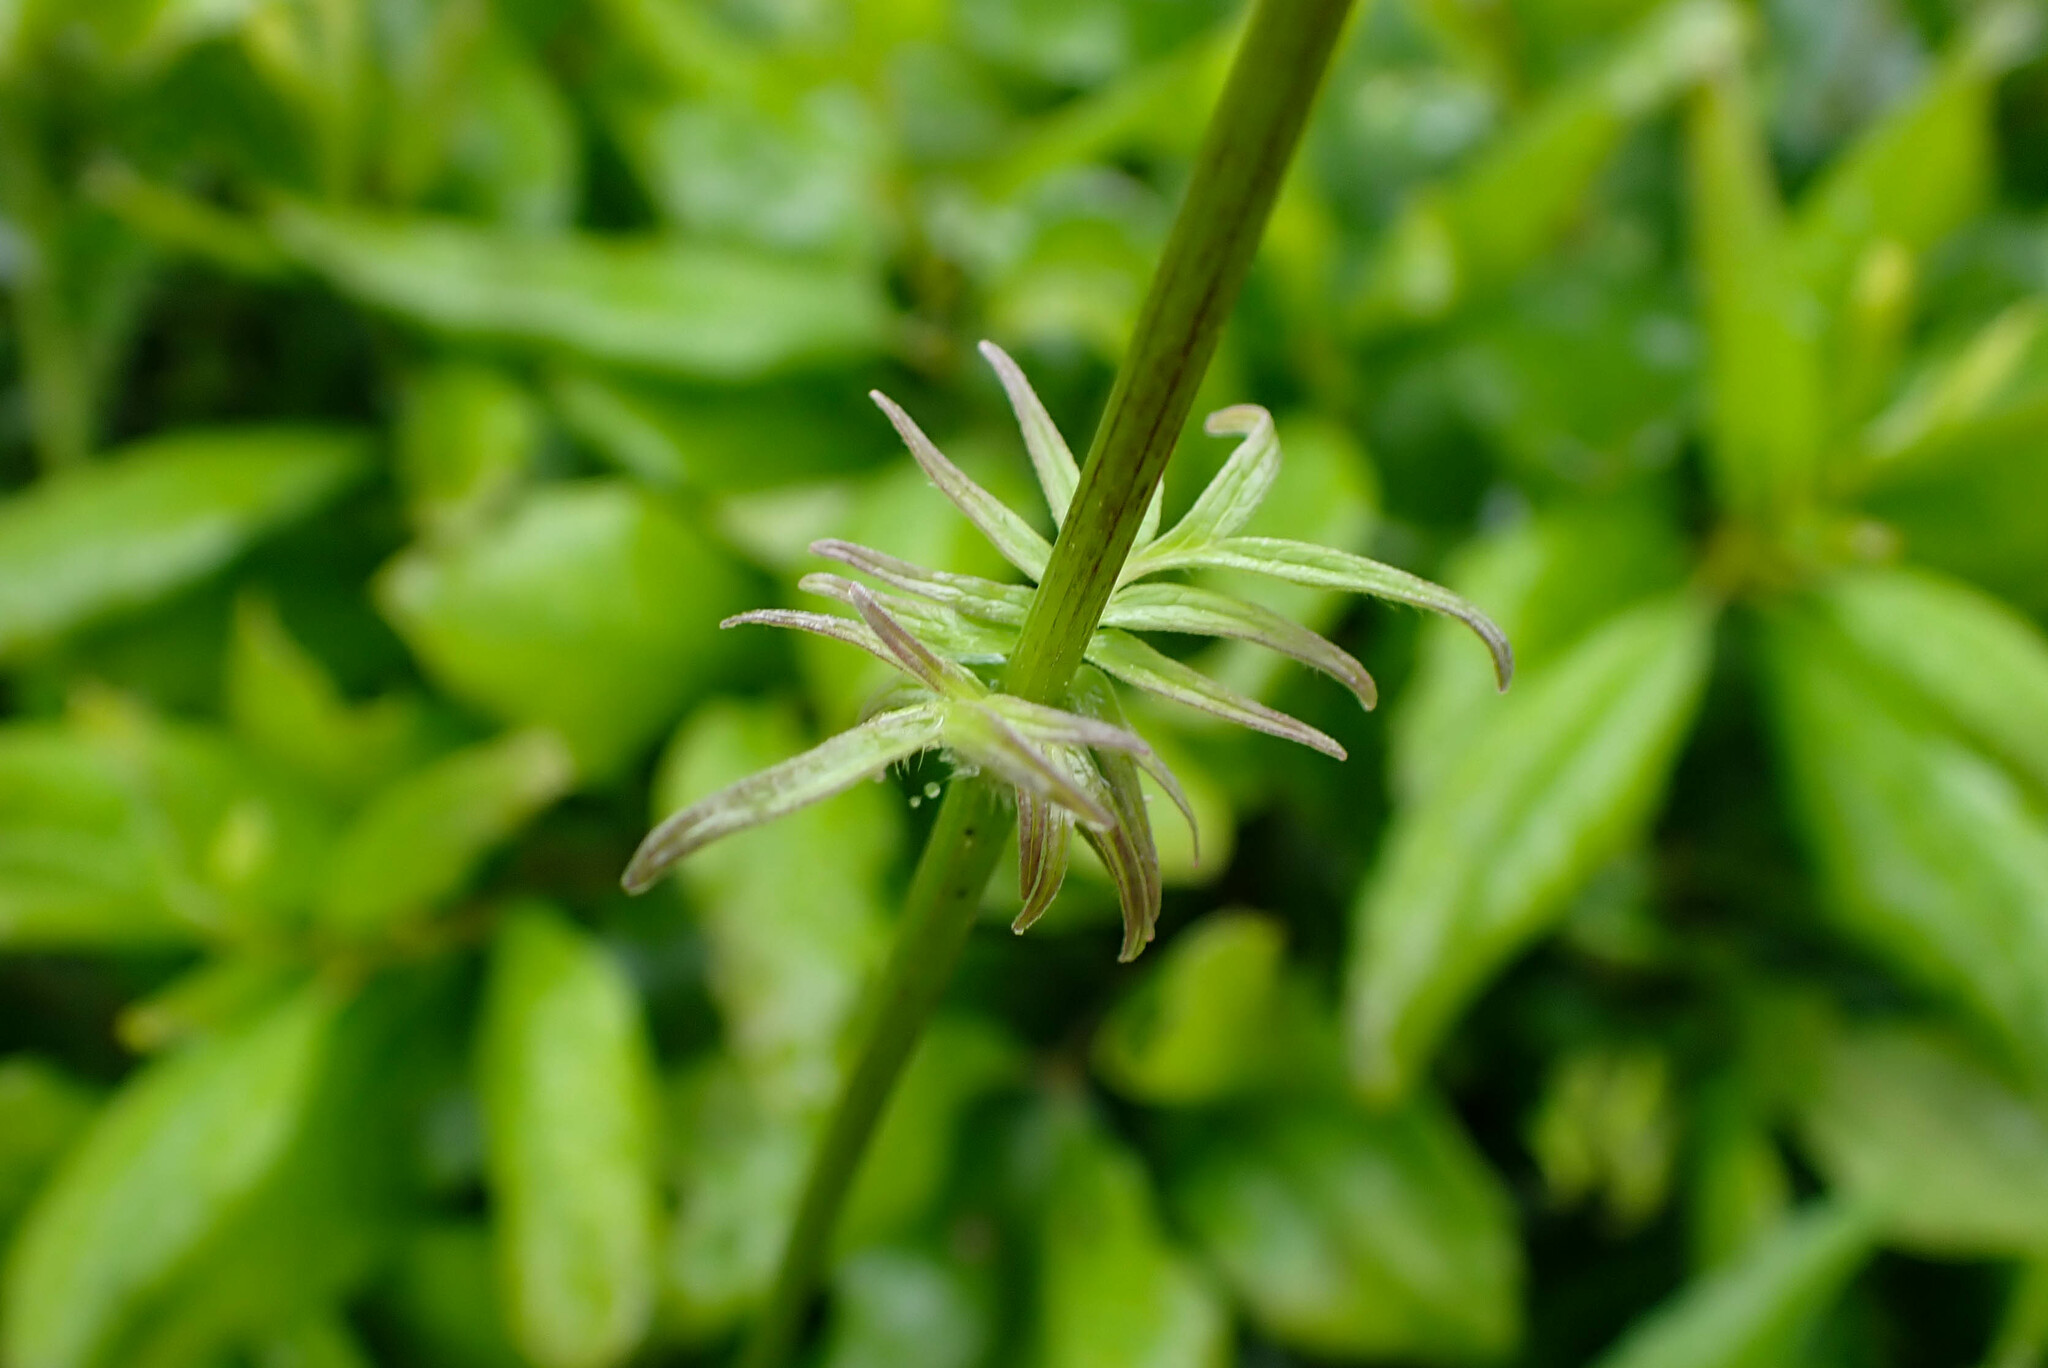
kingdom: Plantae
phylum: Tracheophyta
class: Magnoliopsida
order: Dipsacales
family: Caprifoliaceae
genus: Valeriana
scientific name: Valeriana officinalis
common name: Common valerian
